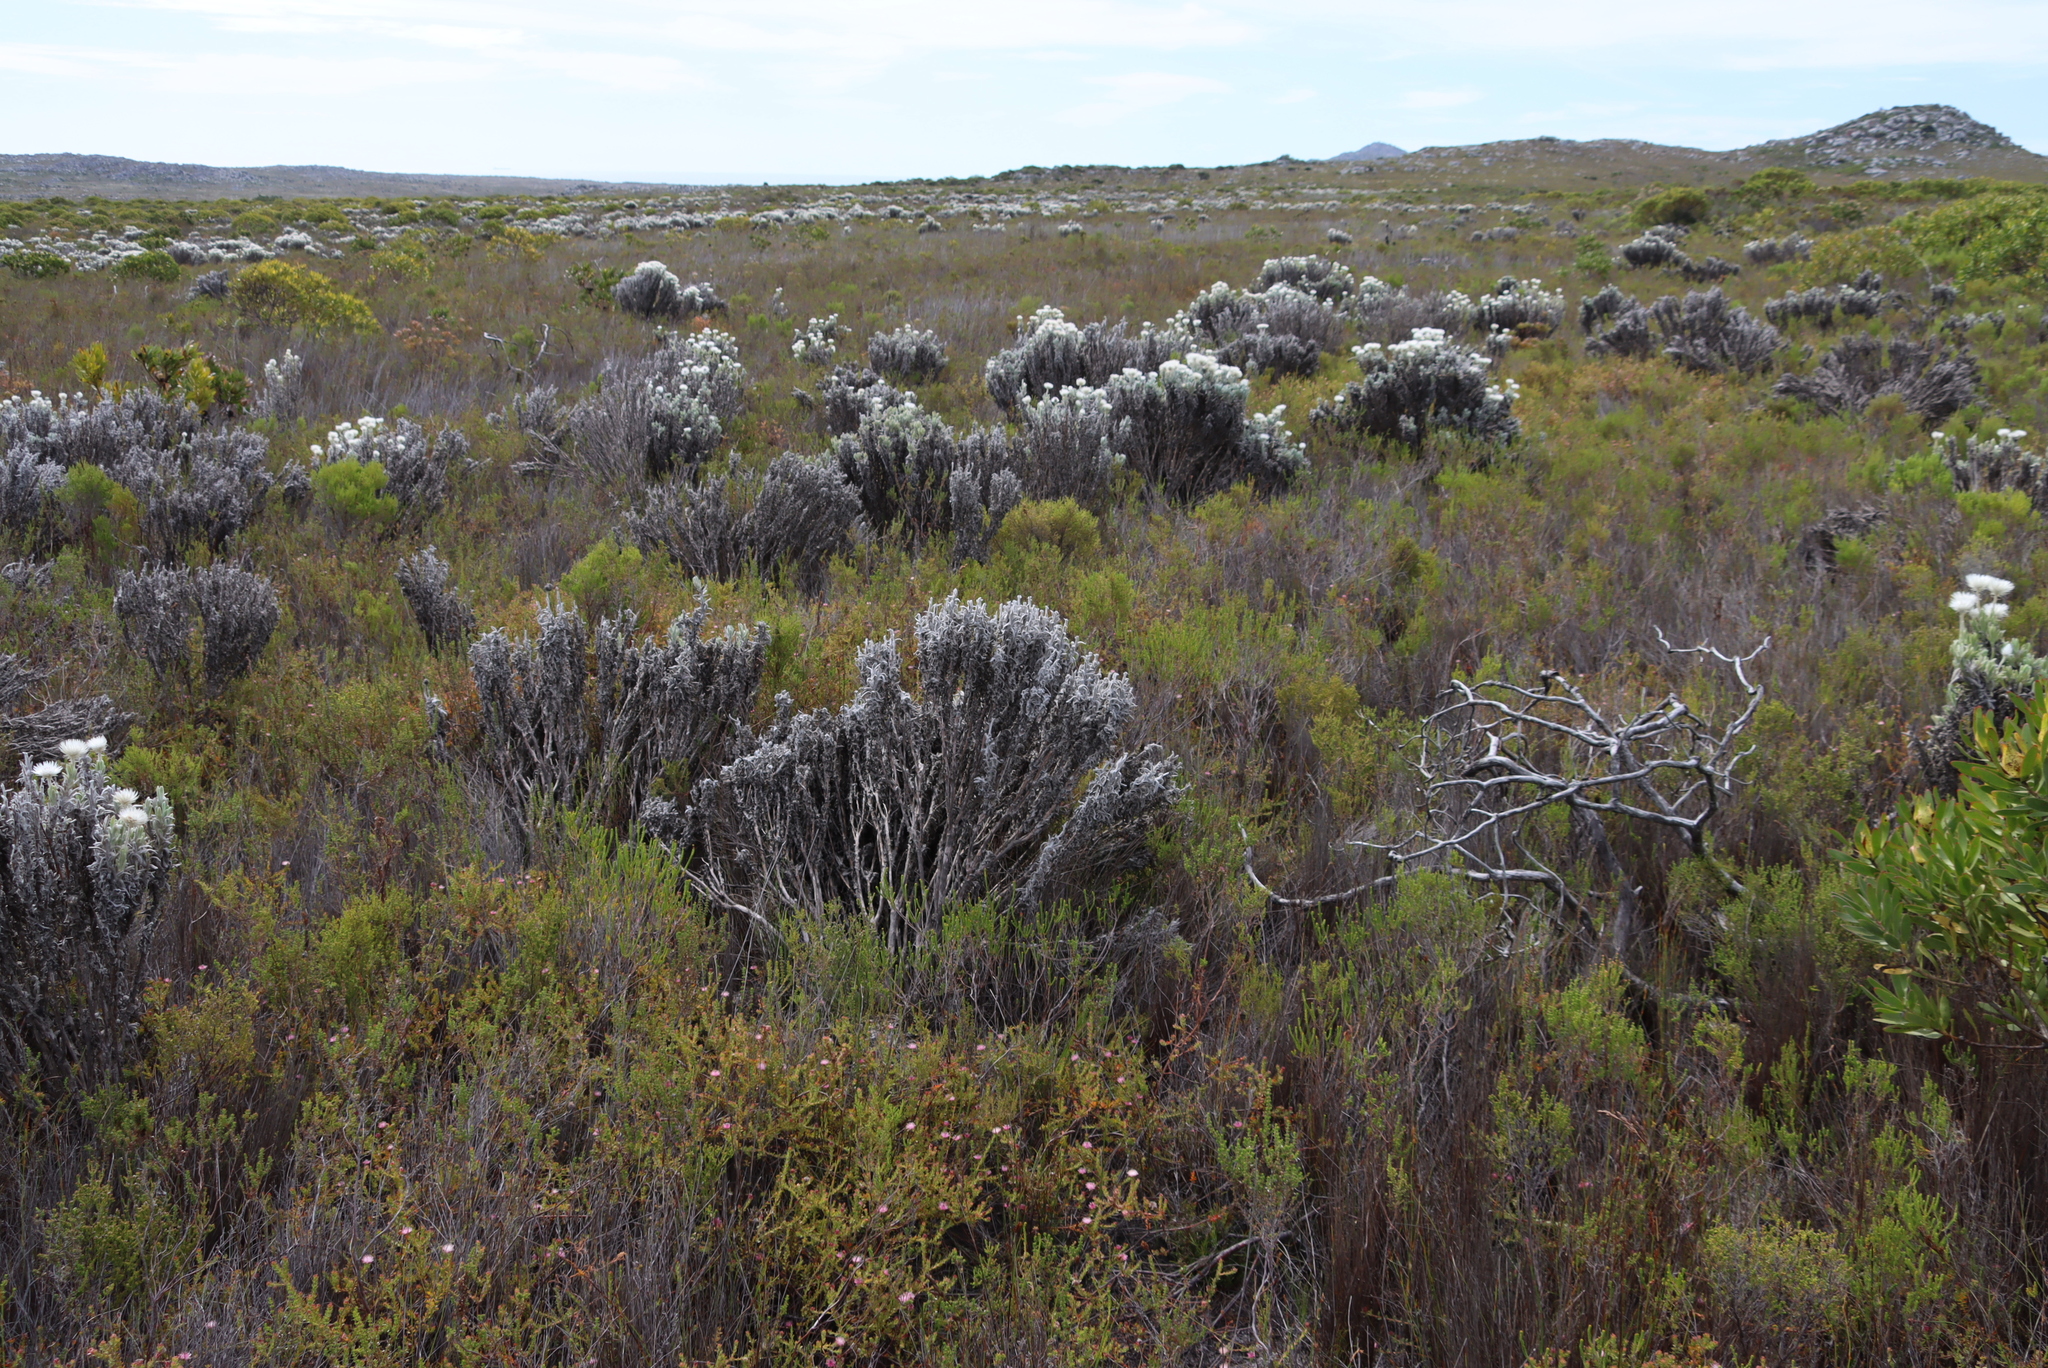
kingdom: Plantae
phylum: Tracheophyta
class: Magnoliopsida
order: Asterales
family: Asteraceae
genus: Syncarpha
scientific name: Syncarpha vestita
